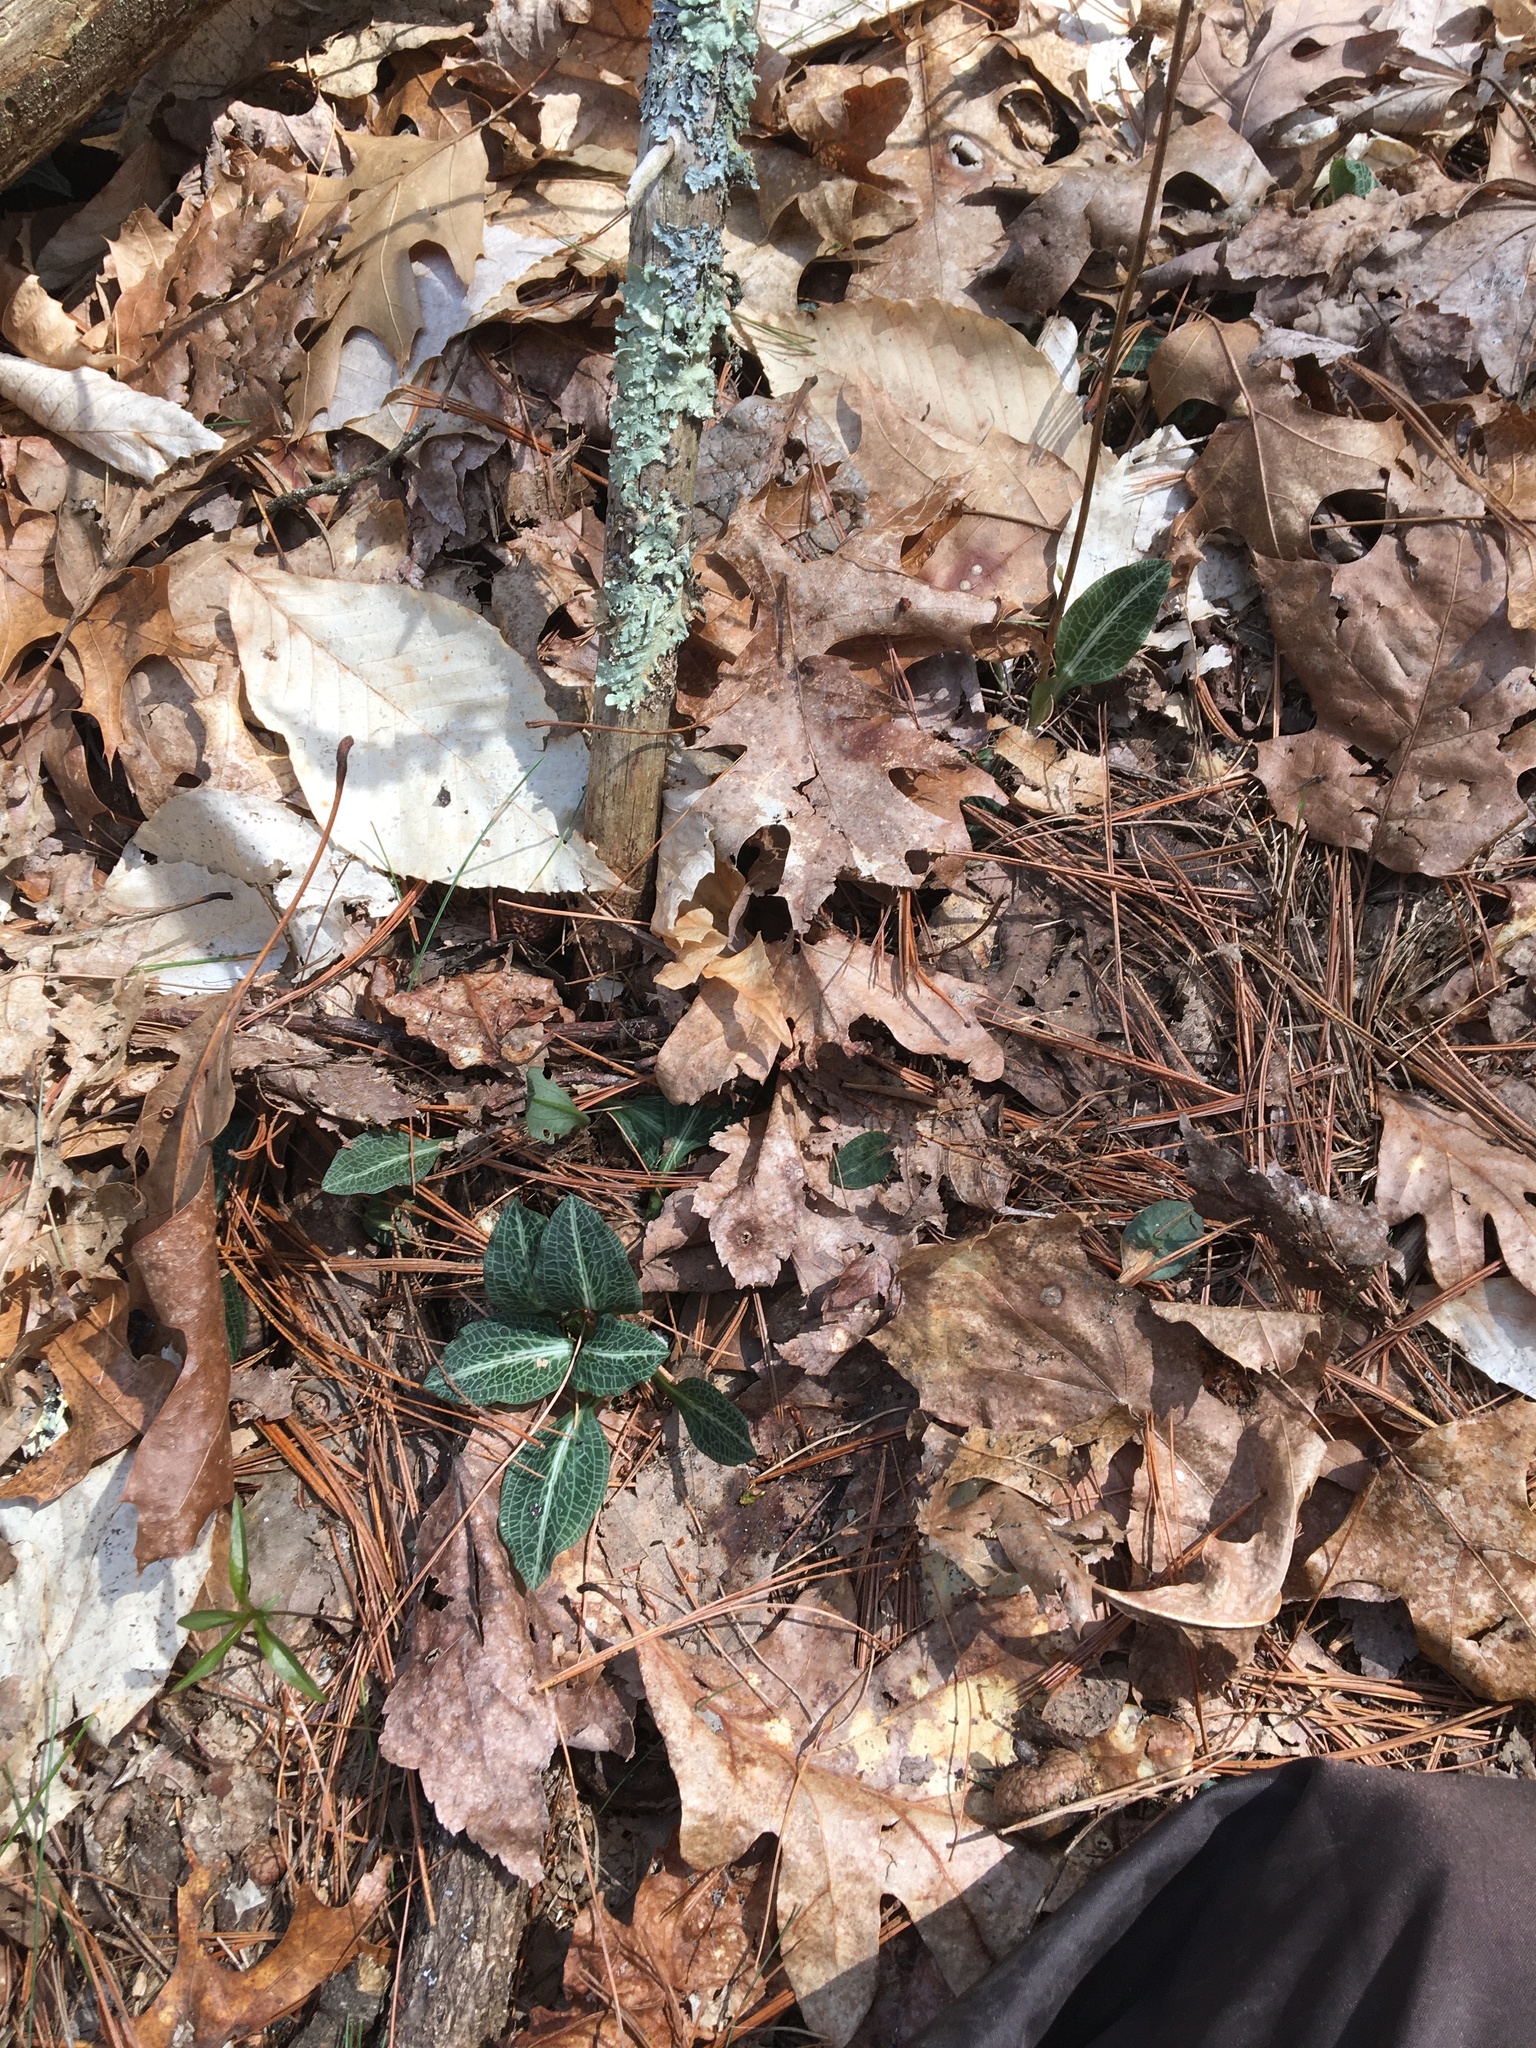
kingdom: Plantae
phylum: Tracheophyta
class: Liliopsida
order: Asparagales
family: Orchidaceae
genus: Goodyera
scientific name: Goodyera pubescens
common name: Downy rattlesnake-plantain
